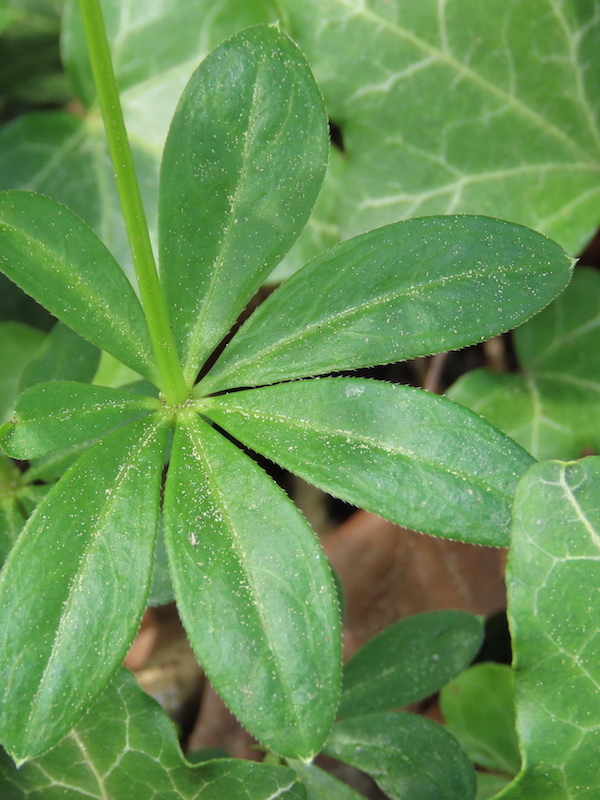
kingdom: Plantae
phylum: Tracheophyta
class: Magnoliopsida
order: Gentianales
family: Rubiaceae
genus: Galium
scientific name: Galium odoratum
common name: Sweet woodruff
